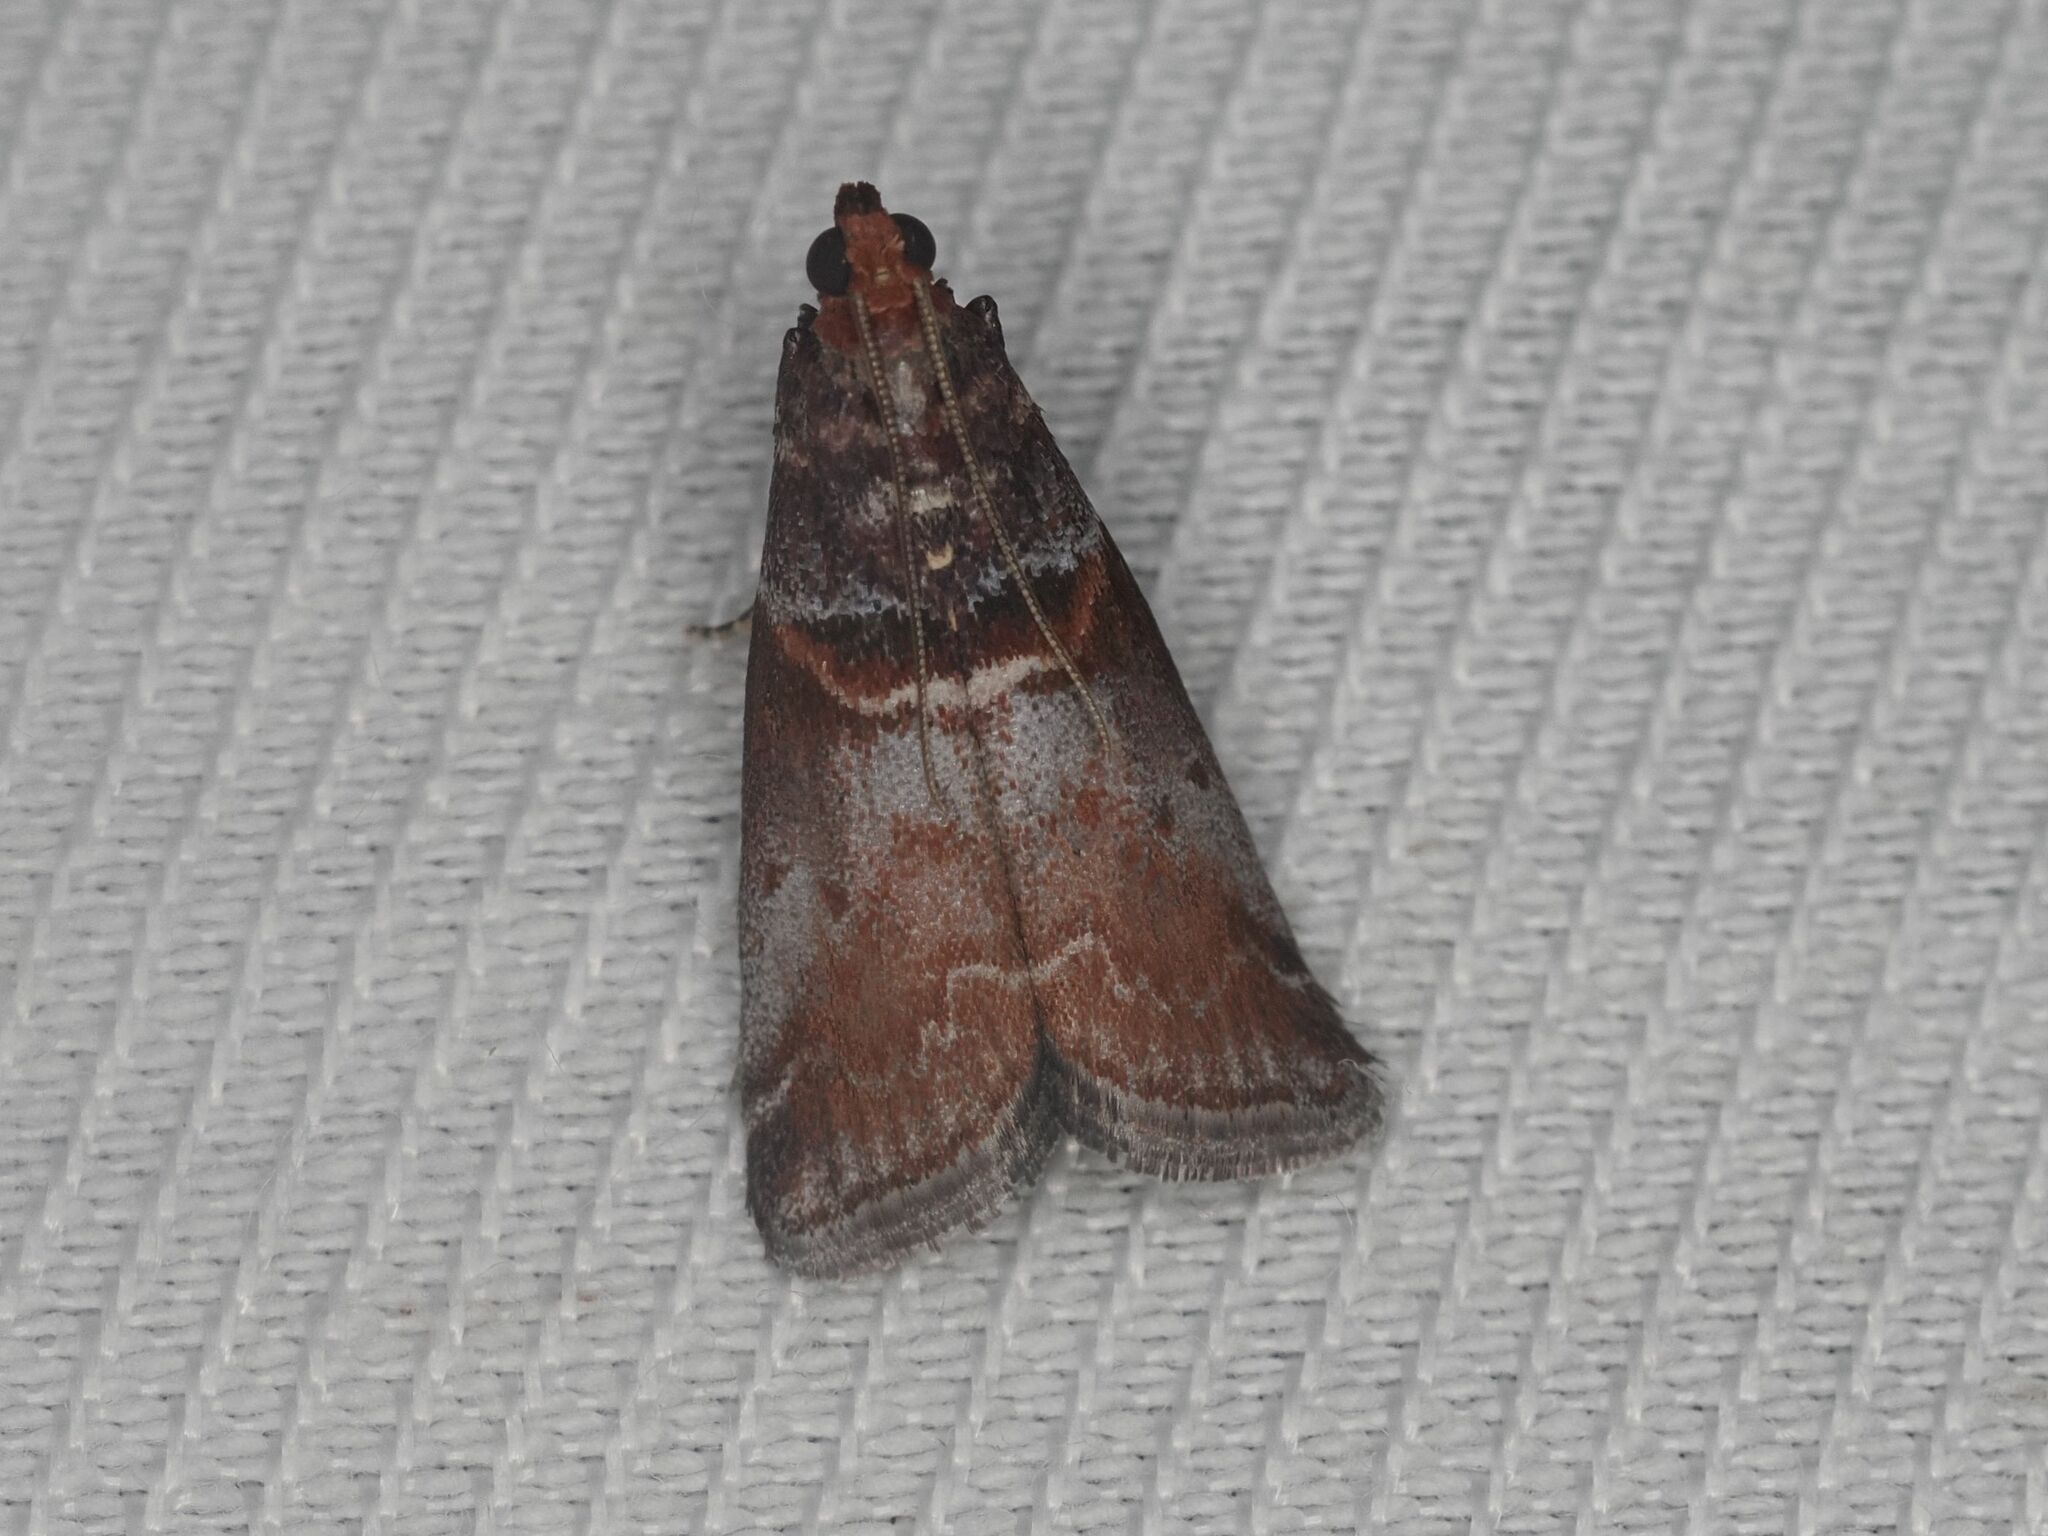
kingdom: Animalia
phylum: Arthropoda
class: Insecta
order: Lepidoptera
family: Pyralidae
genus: Acrobasis
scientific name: Acrobasis advenella
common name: Grey knot-horn
